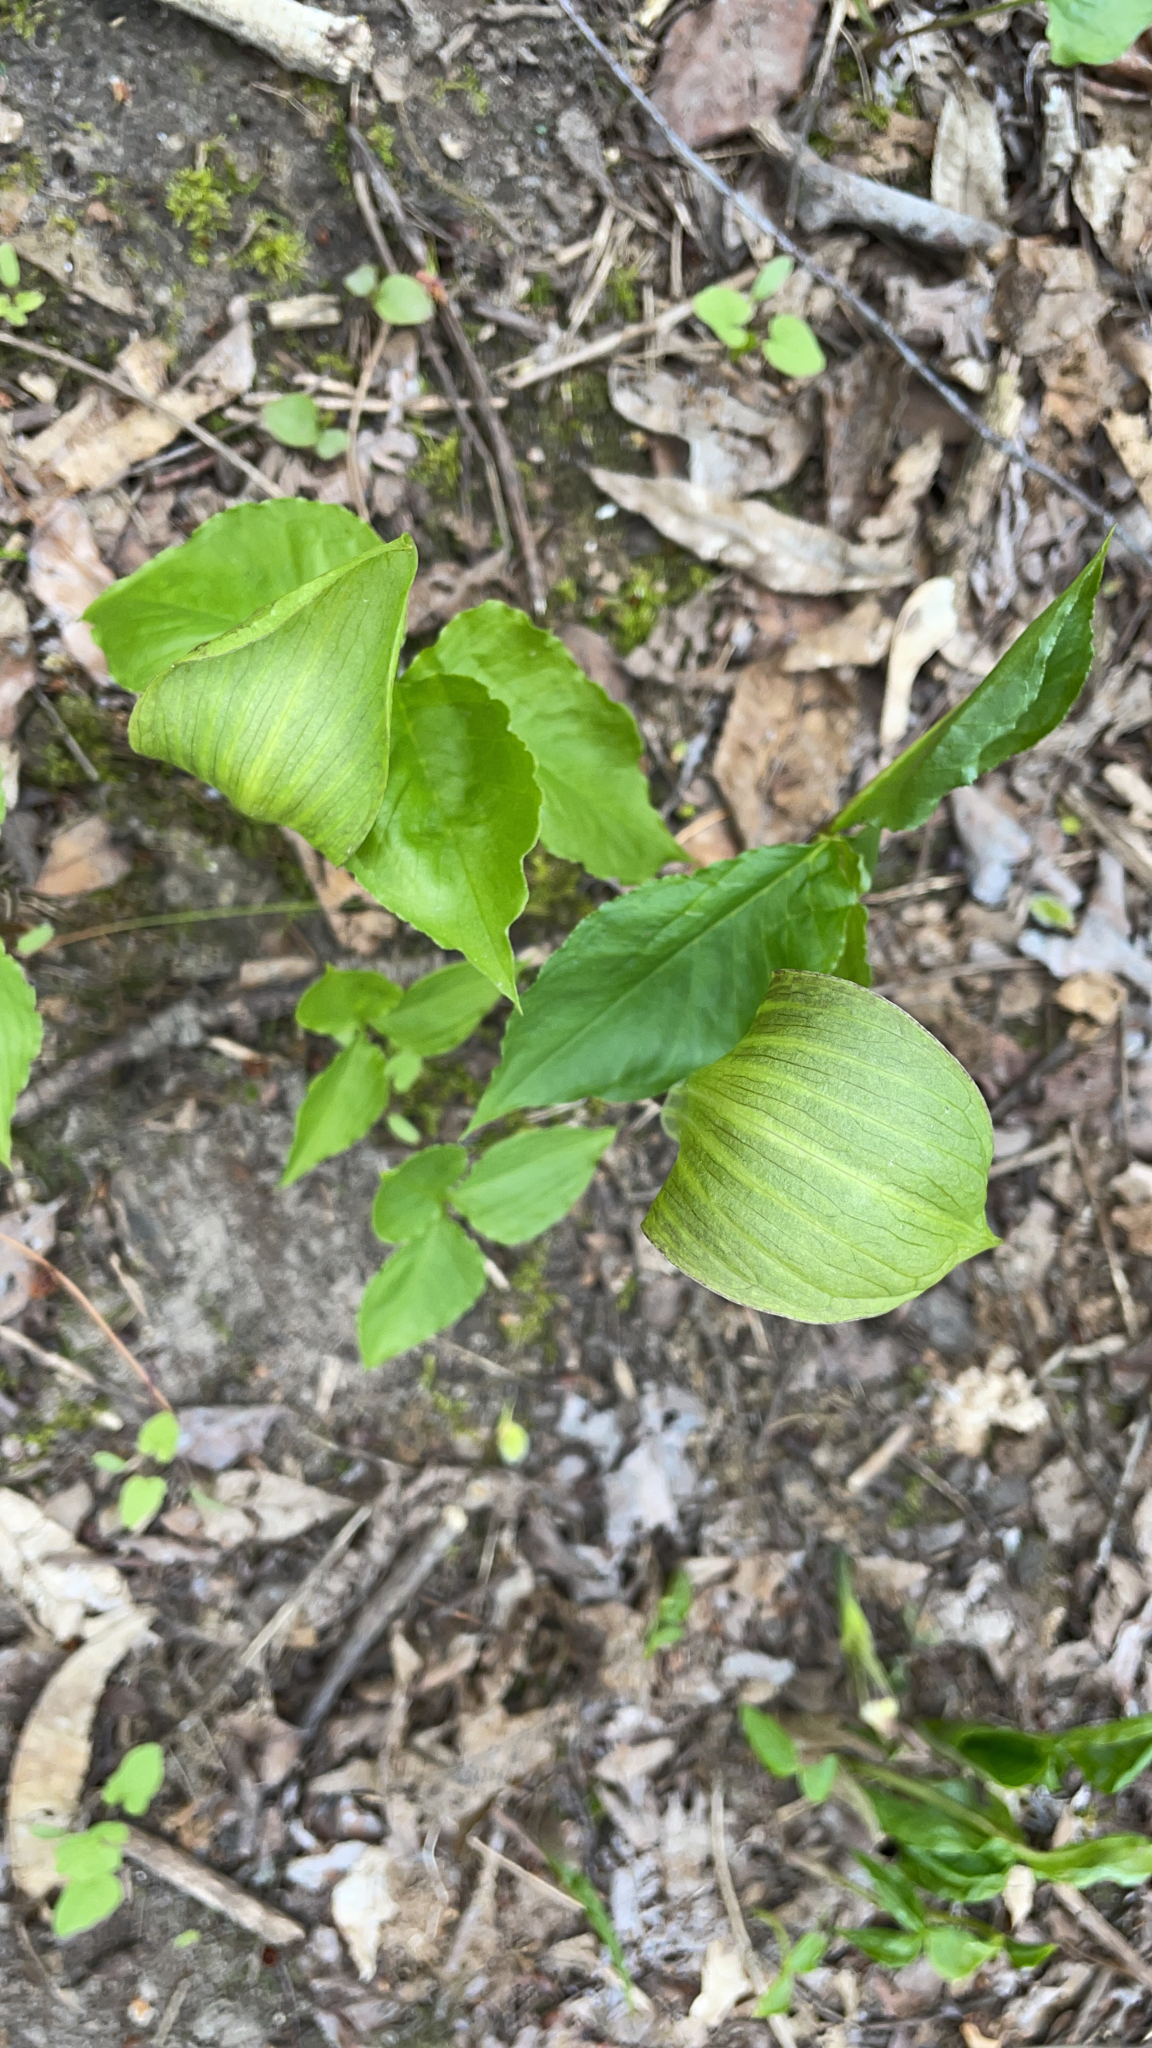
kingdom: Plantae
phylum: Tracheophyta
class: Liliopsida
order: Alismatales
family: Araceae
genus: Arisaema
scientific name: Arisaema triphyllum
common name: Jack-in-the-pulpit
